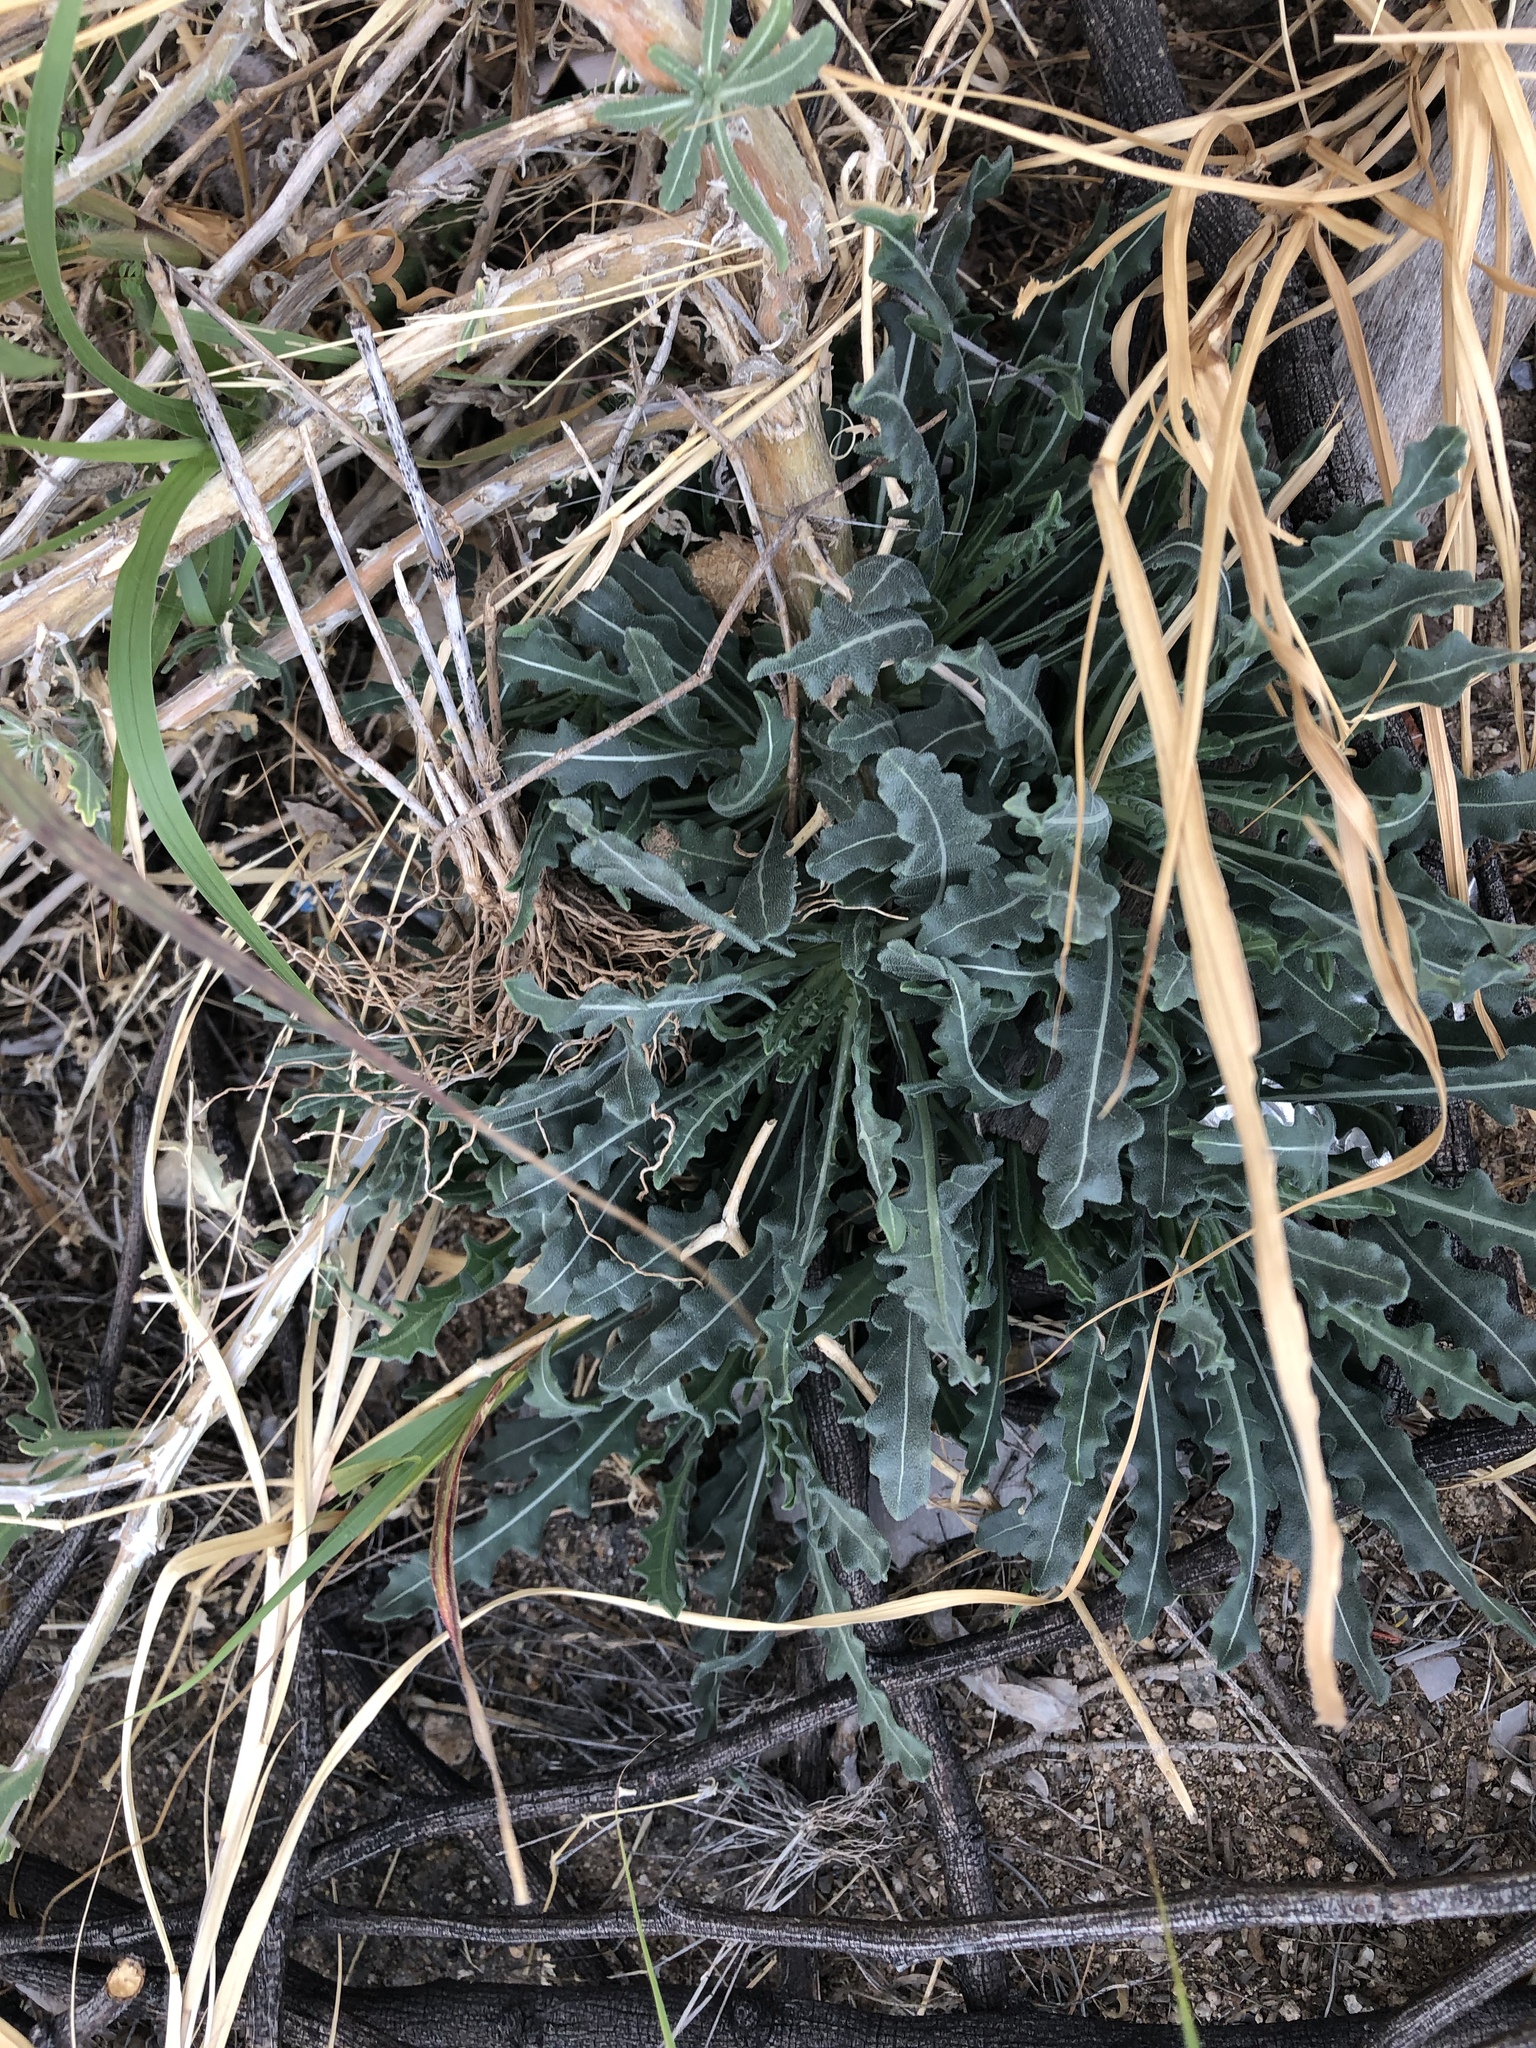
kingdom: Plantae
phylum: Tracheophyta
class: Magnoliopsida
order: Cornales
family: Loasaceae
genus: Mentzelia
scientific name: Mentzelia longiloba
